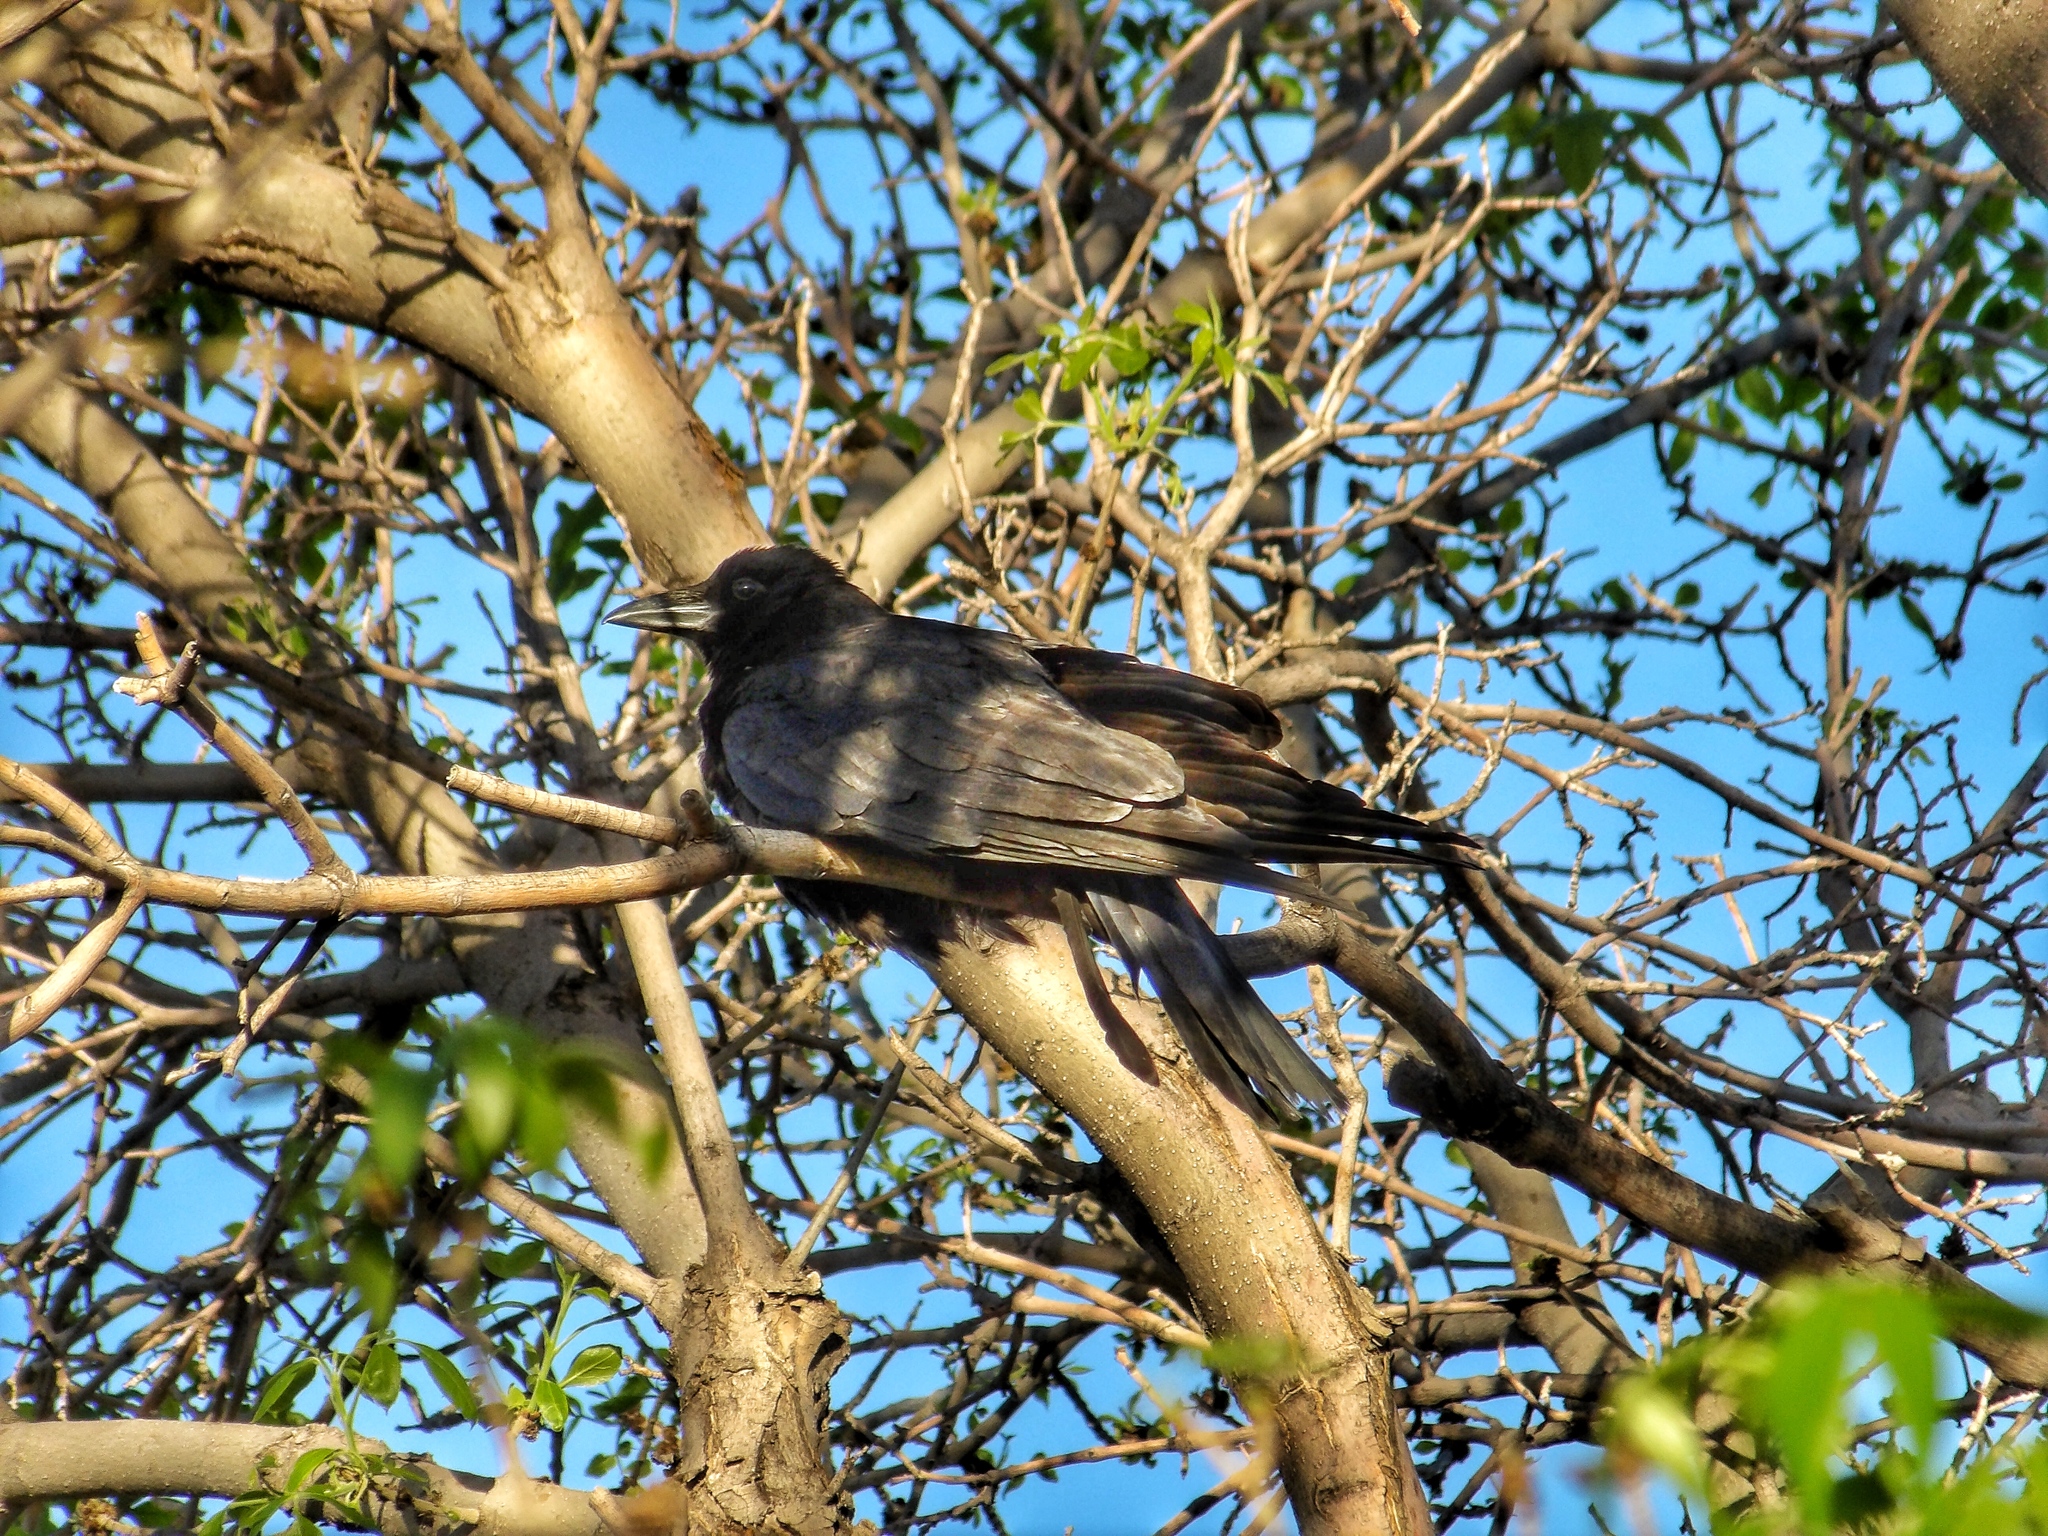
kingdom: Animalia
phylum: Chordata
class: Aves
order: Passeriformes
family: Corvidae
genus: Corvus
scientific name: Corvus brachyrhynchos
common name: American crow
